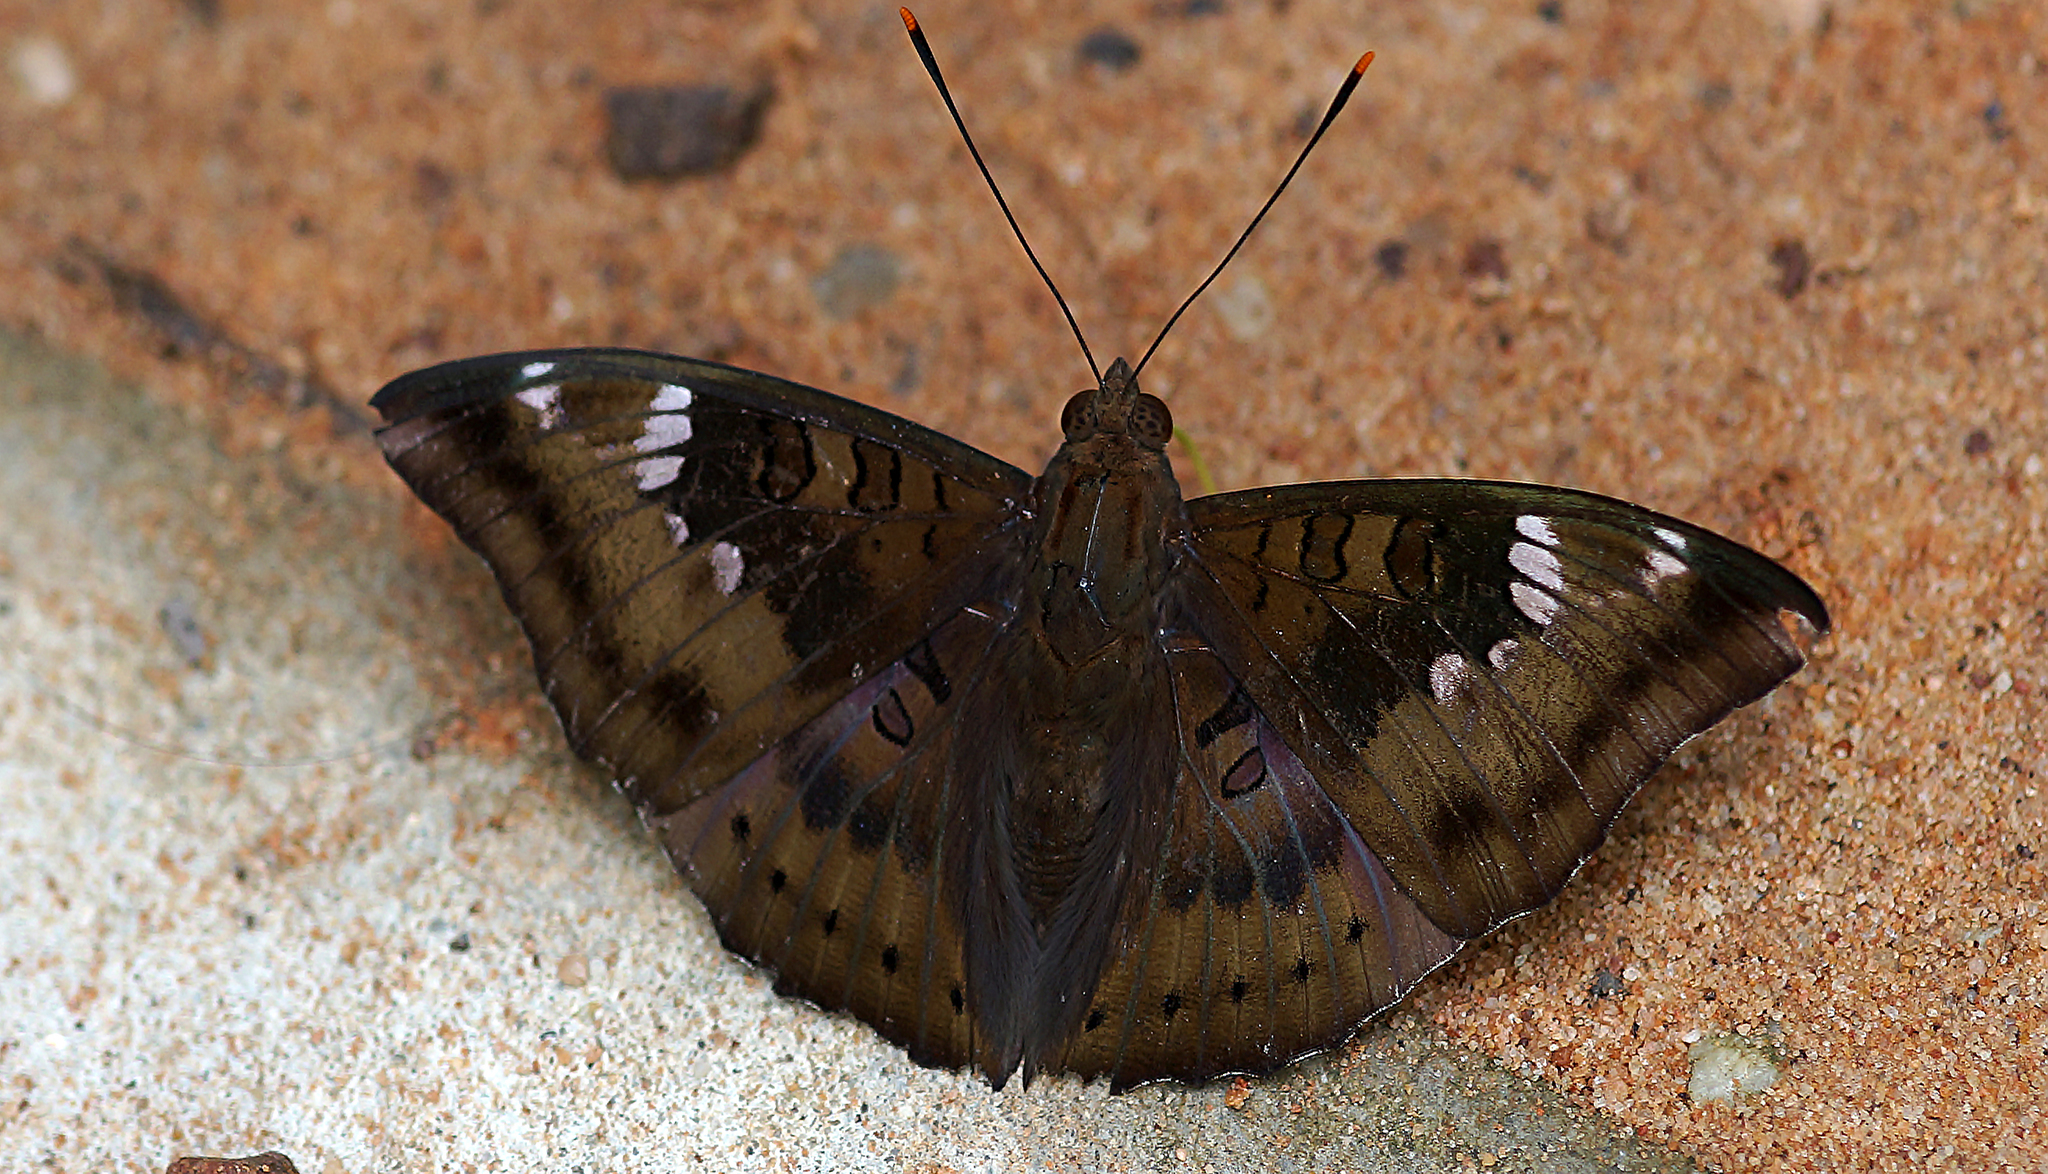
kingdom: Animalia
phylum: Arthropoda
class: Insecta
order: Lepidoptera
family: Nymphalidae
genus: Euthalia
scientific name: Euthalia aconthea
